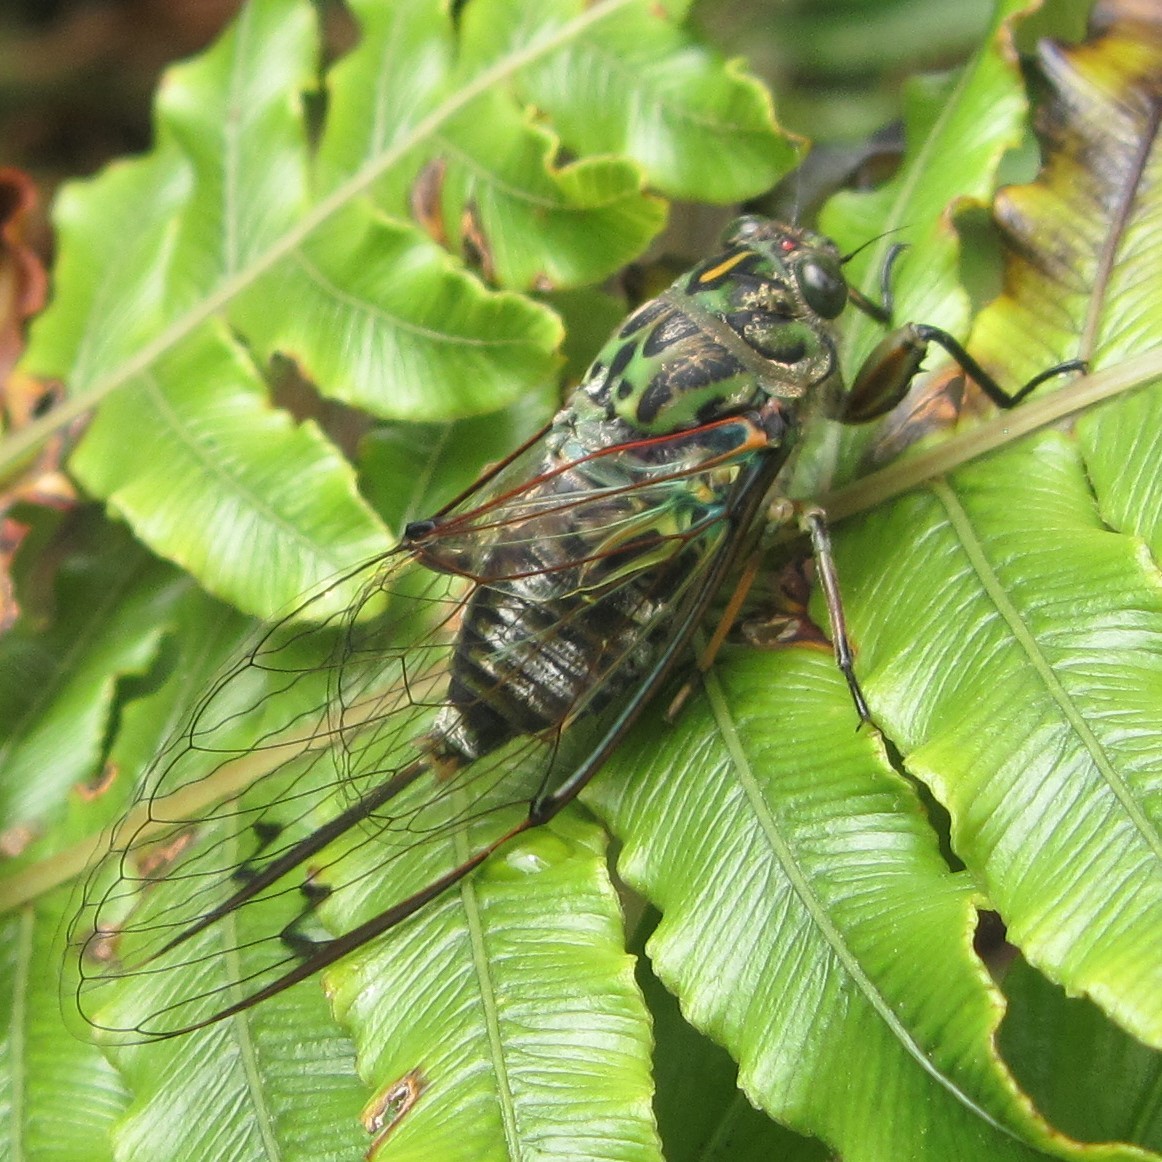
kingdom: Animalia
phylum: Arthropoda
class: Insecta
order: Hemiptera
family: Cicadidae
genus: Amphipsalta
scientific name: Amphipsalta zelandica
